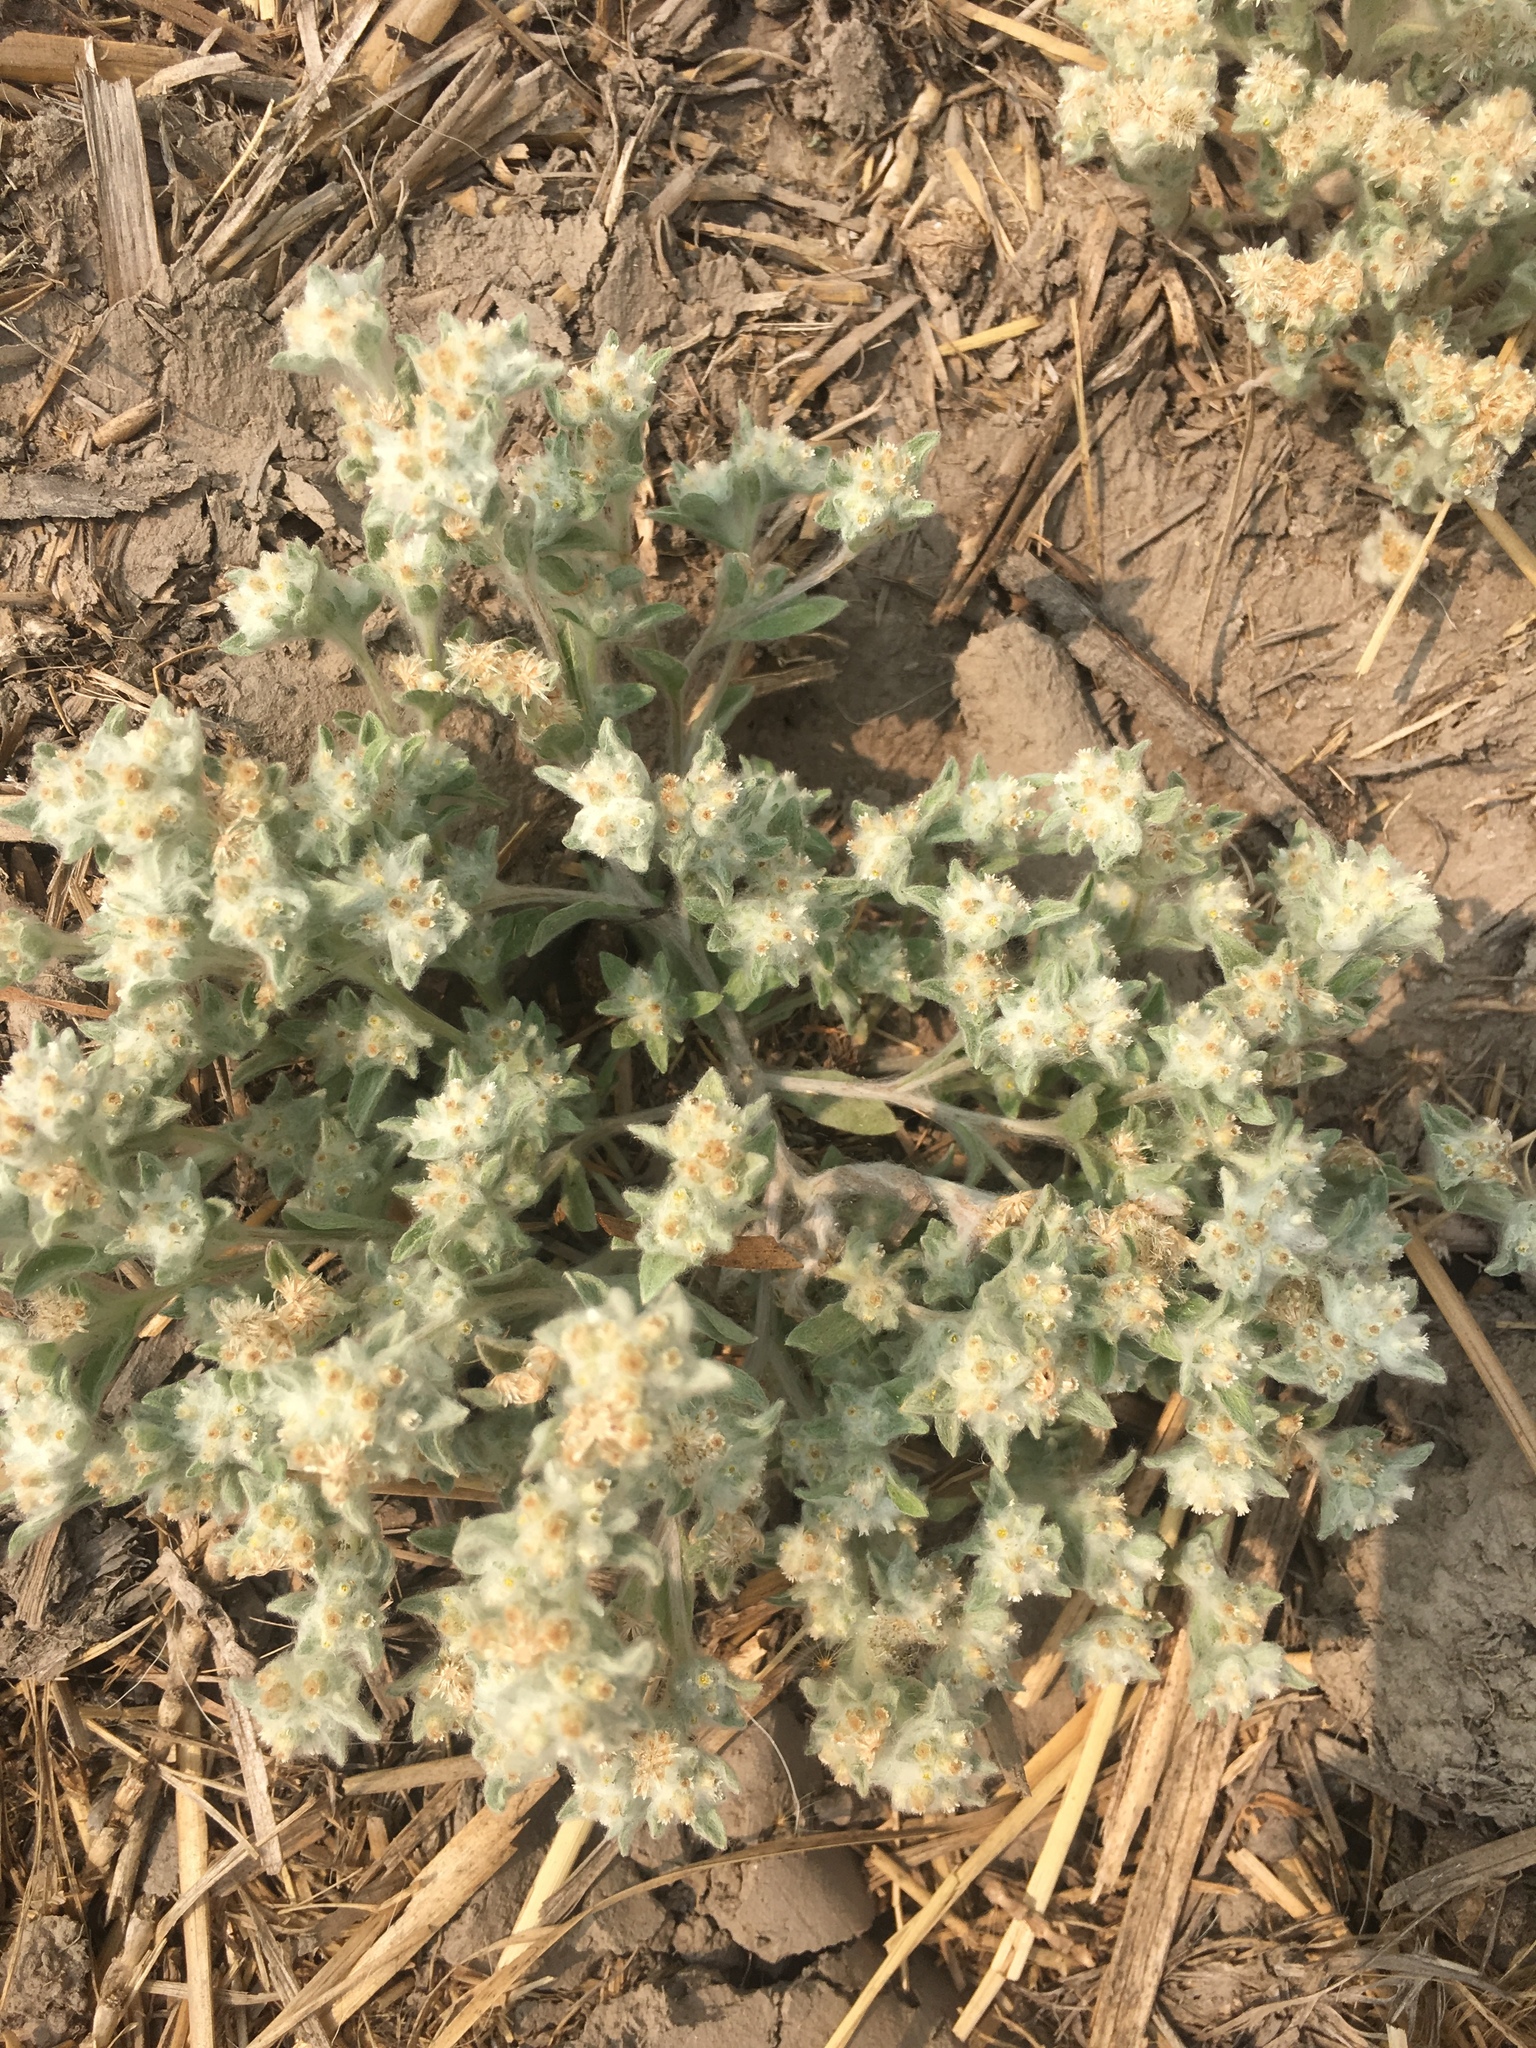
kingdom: Plantae
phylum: Tracheophyta
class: Magnoliopsida
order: Asterales
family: Asteraceae
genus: Gnaphalium
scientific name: Gnaphalium palustre
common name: Western marsh cudweed
